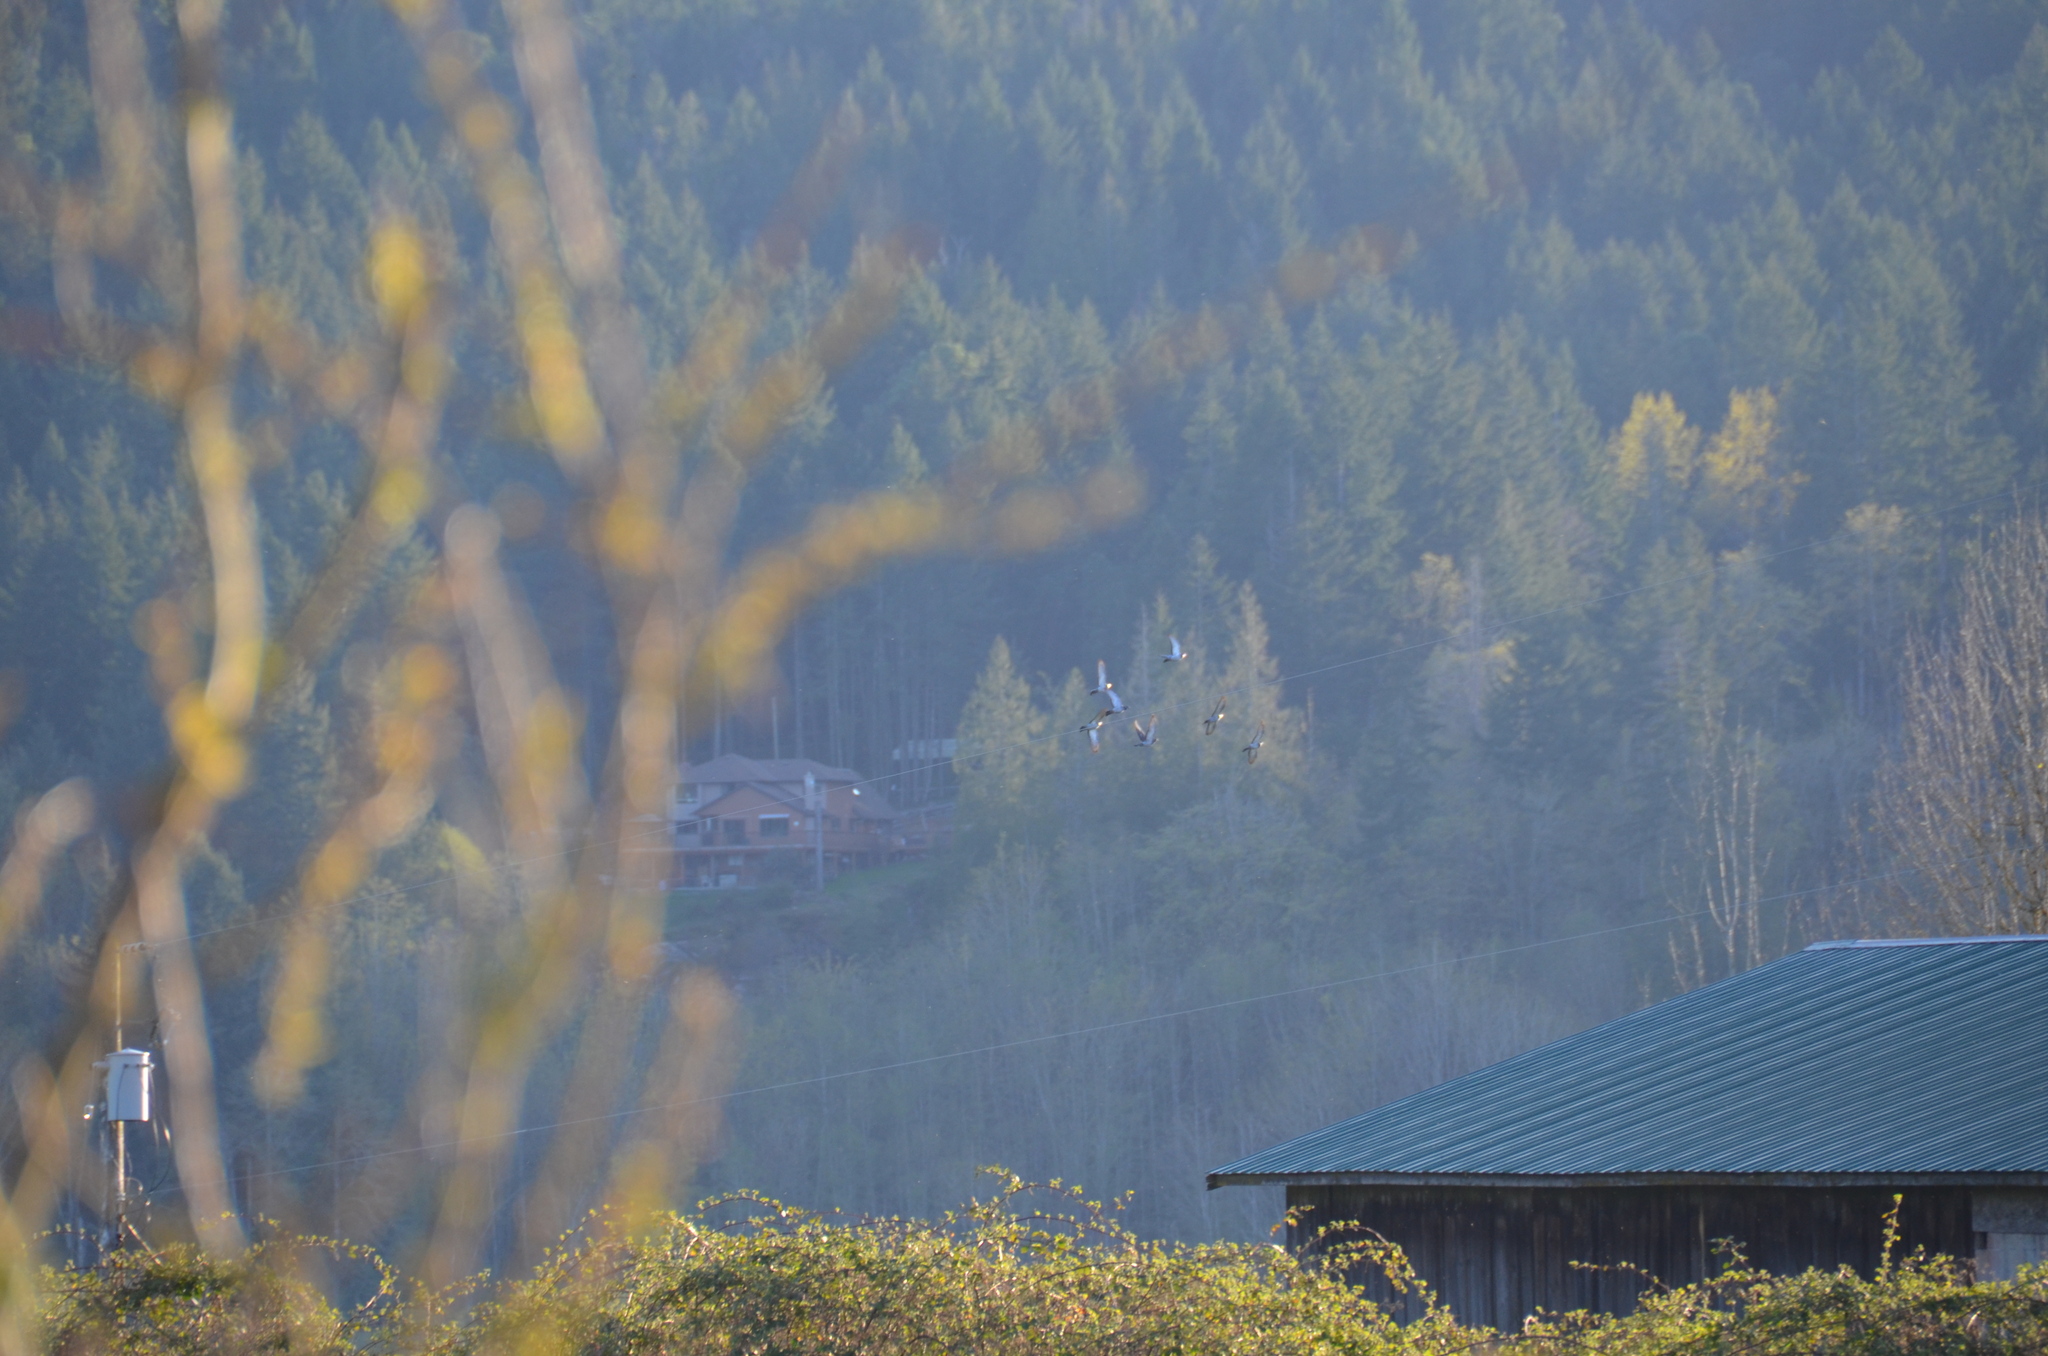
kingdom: Animalia
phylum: Chordata
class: Aves
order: Columbiformes
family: Columbidae
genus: Columba
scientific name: Columba livia
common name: Rock pigeon
